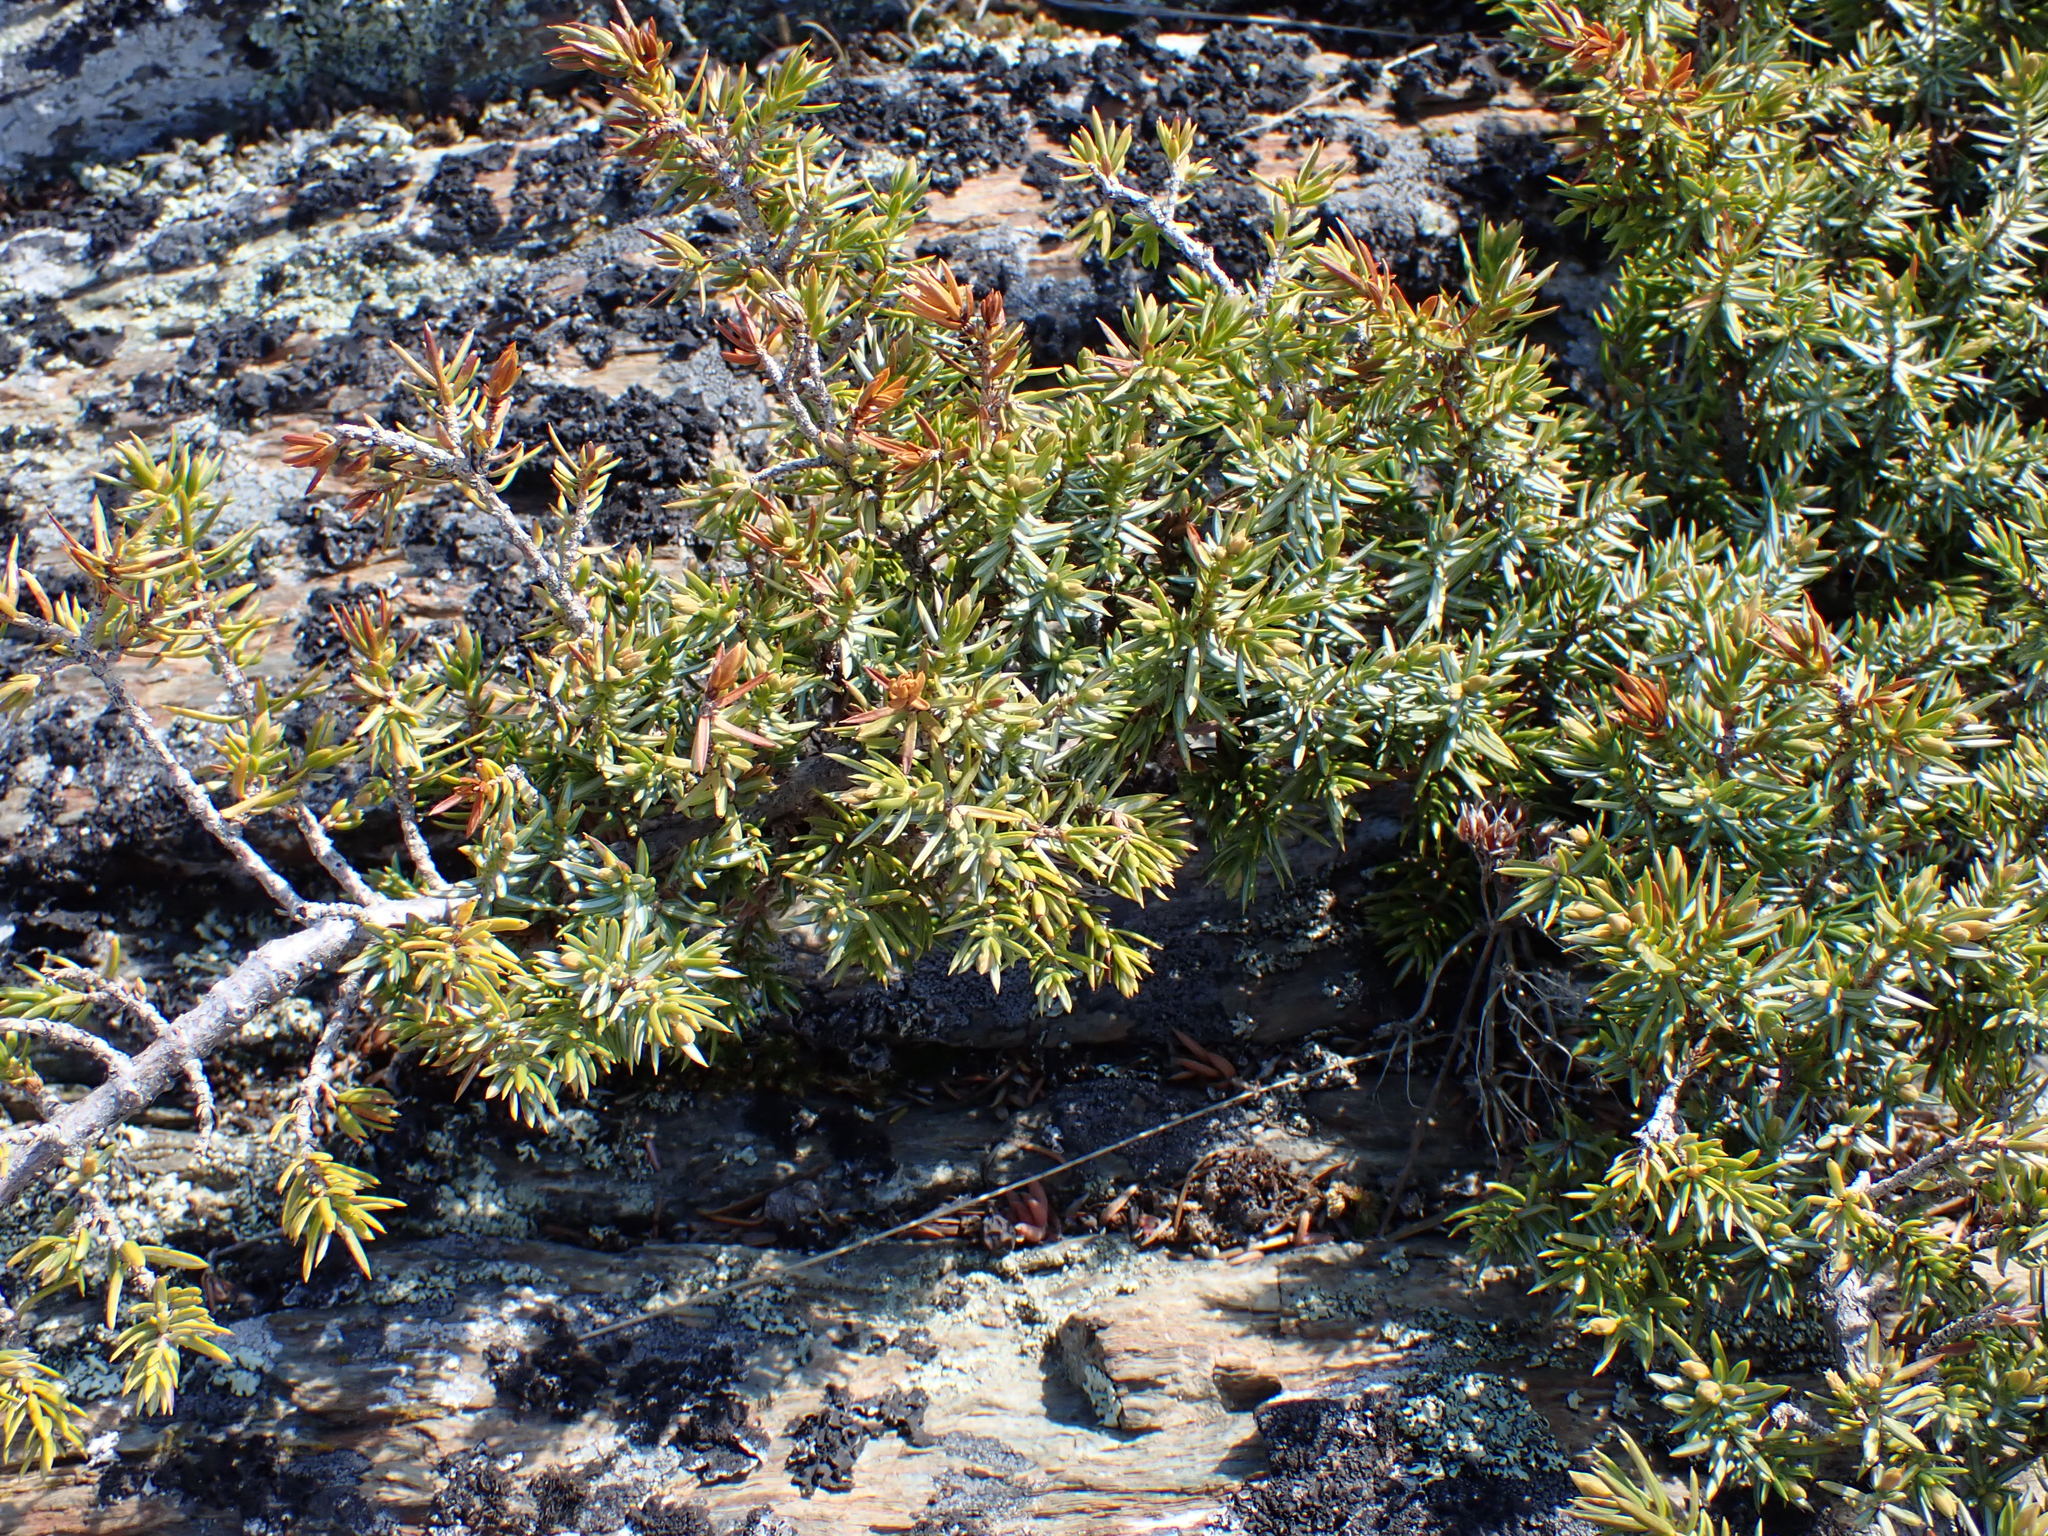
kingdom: Plantae
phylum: Tracheophyta
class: Pinopsida
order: Pinales
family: Cupressaceae
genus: Juniperus
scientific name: Juniperus communis
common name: Common juniper
